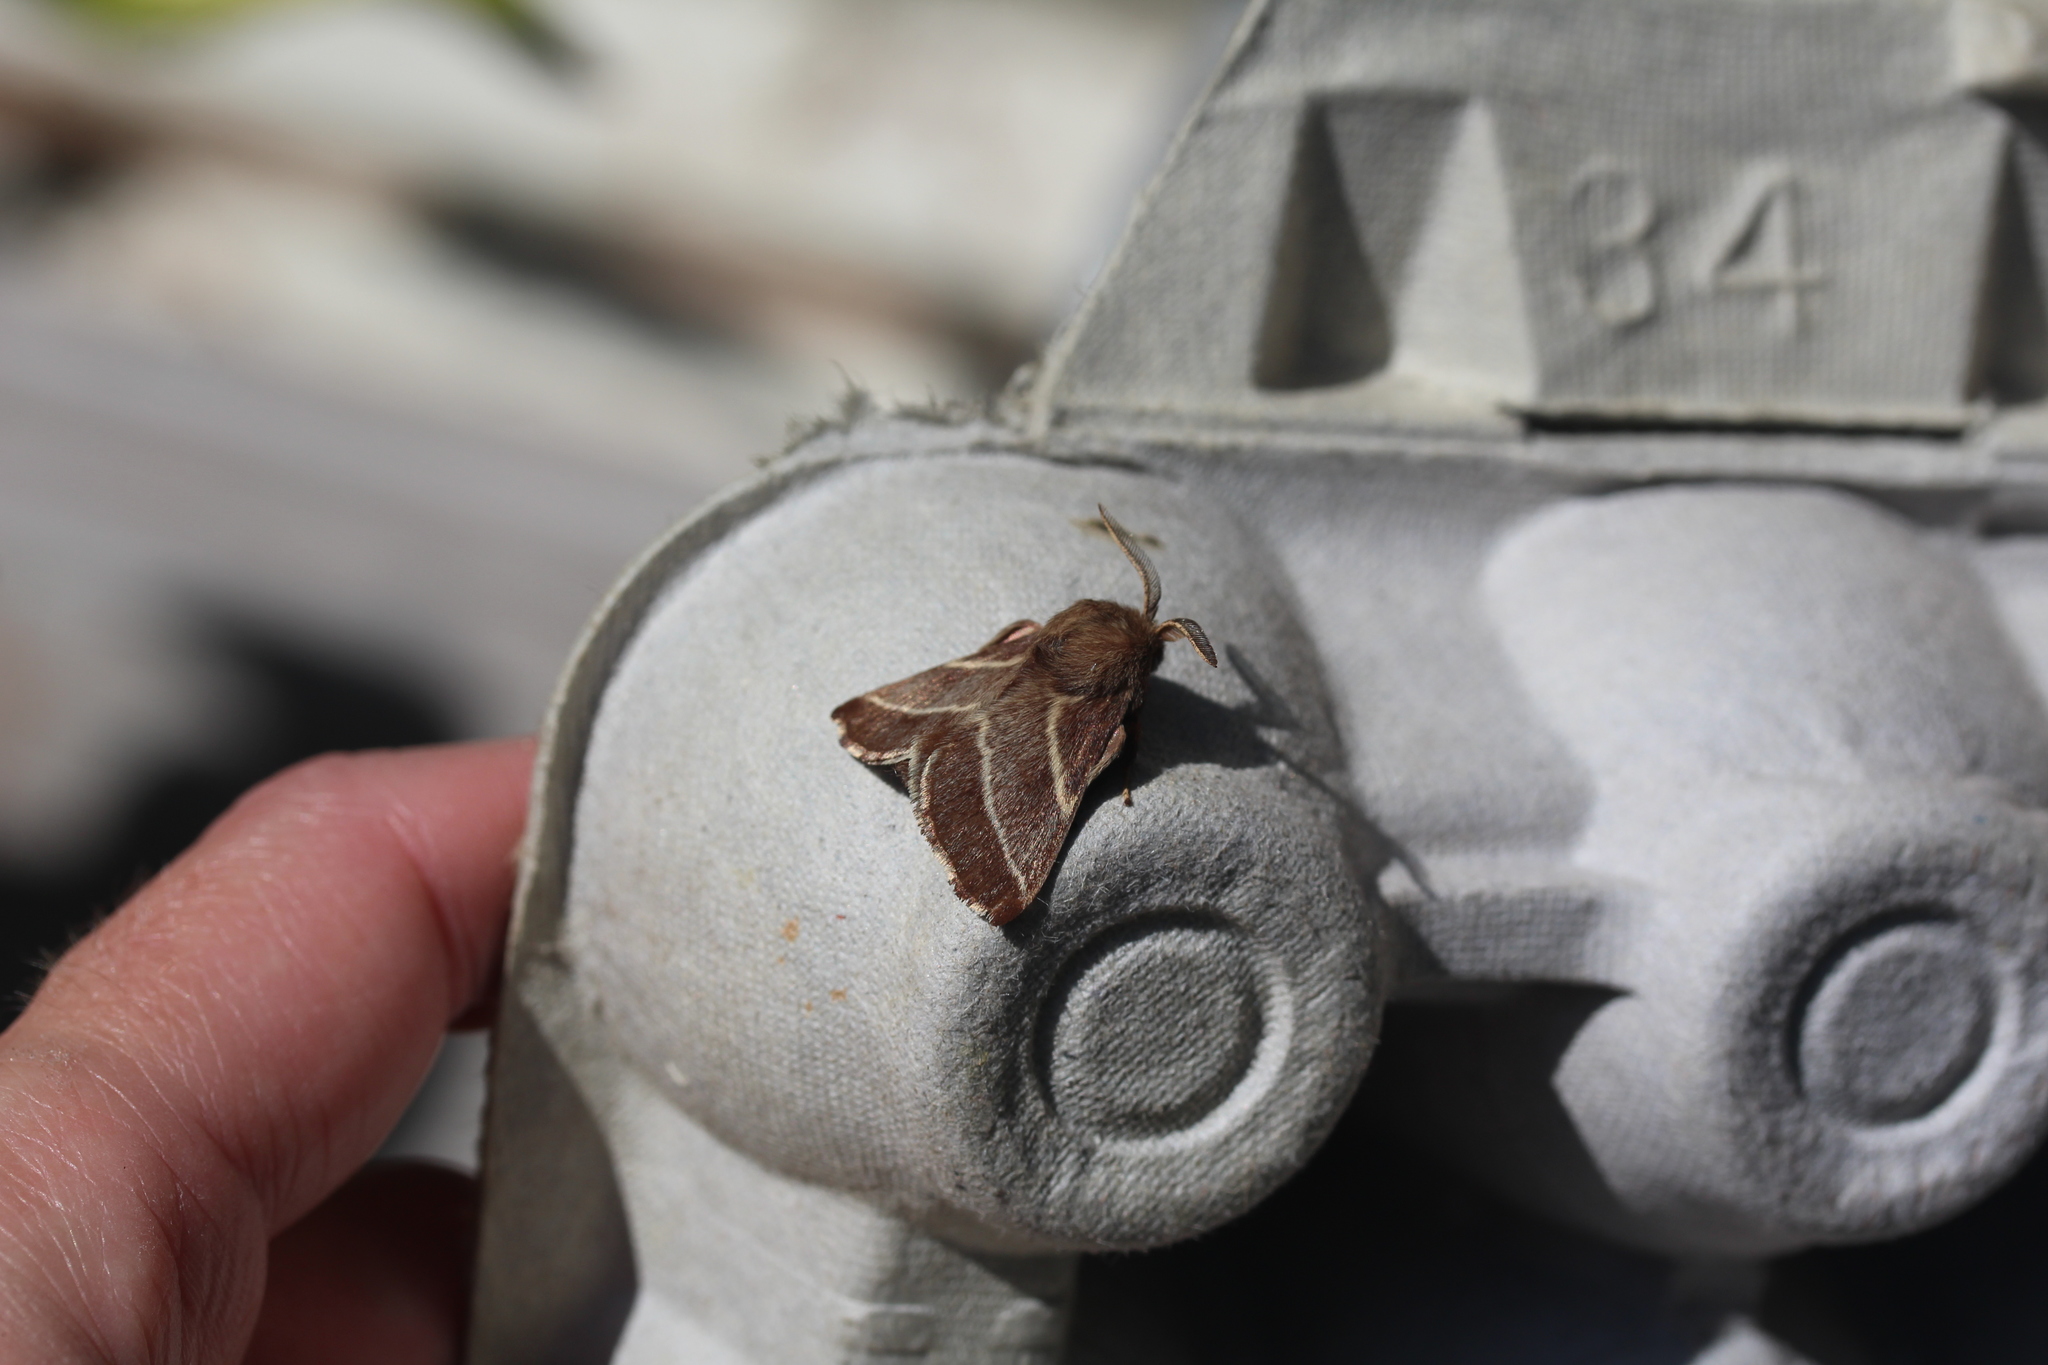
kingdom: Animalia
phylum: Arthropoda
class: Insecta
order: Lepidoptera
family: Lasiocampidae
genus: Malacosoma
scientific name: Malacosoma americana
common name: Eastern tent caterpillar moth
